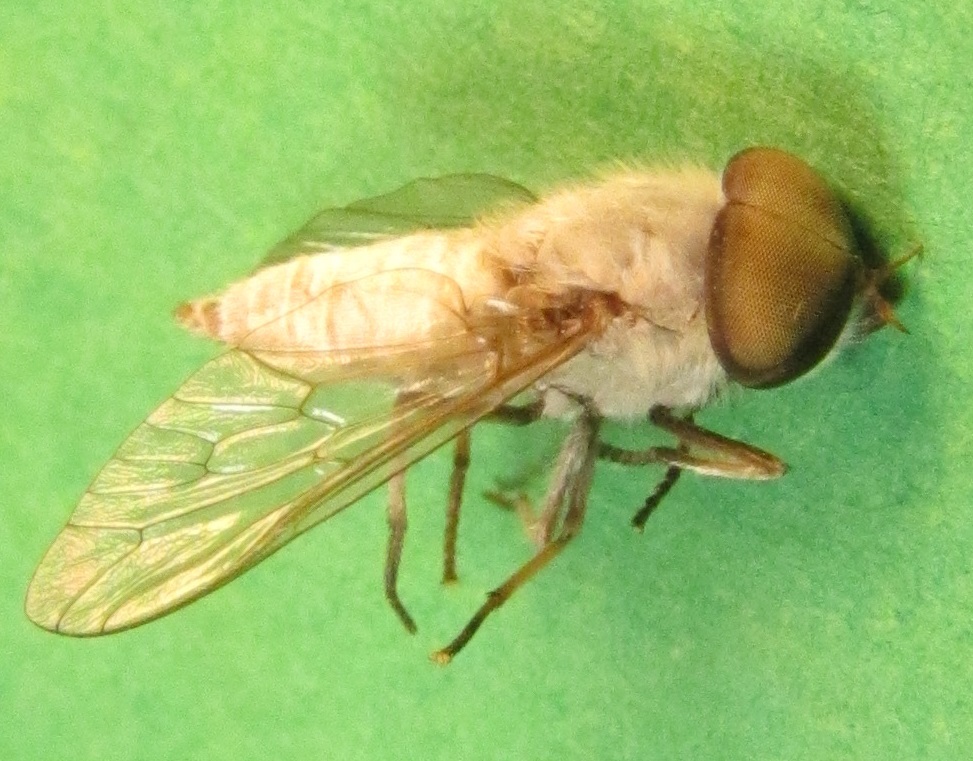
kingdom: Animalia
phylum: Arthropoda
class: Insecta
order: Diptera
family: Tabanidae
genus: Leucotabanus
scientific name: Leucotabanus annulatus
